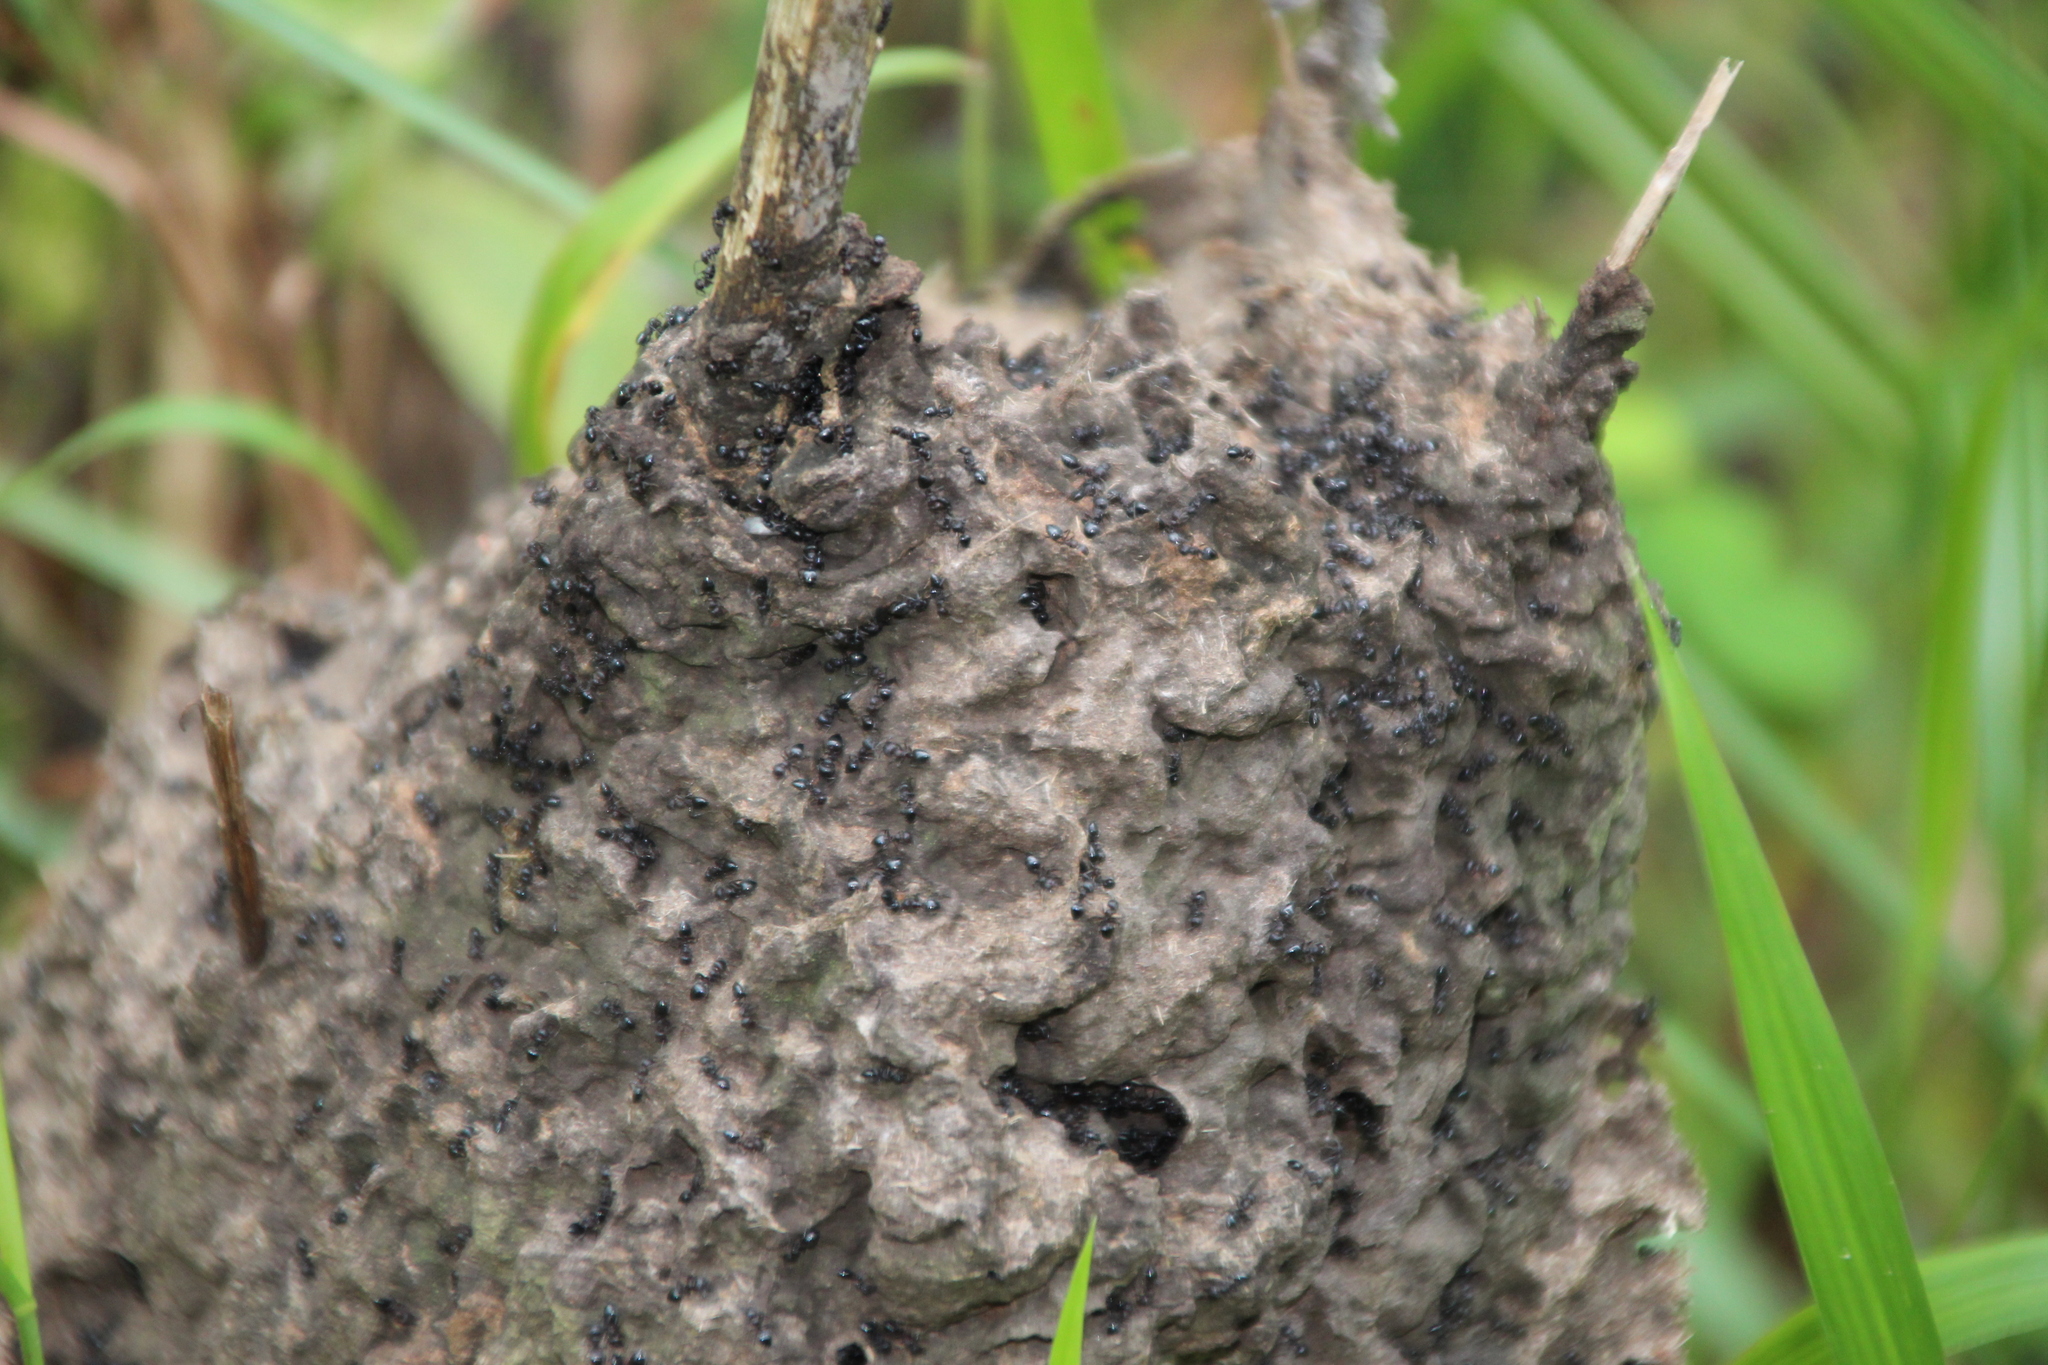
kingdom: Animalia
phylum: Arthropoda
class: Insecta
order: Hymenoptera
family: Formicidae
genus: Crematogaster
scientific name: Crematogaster peringueyi
